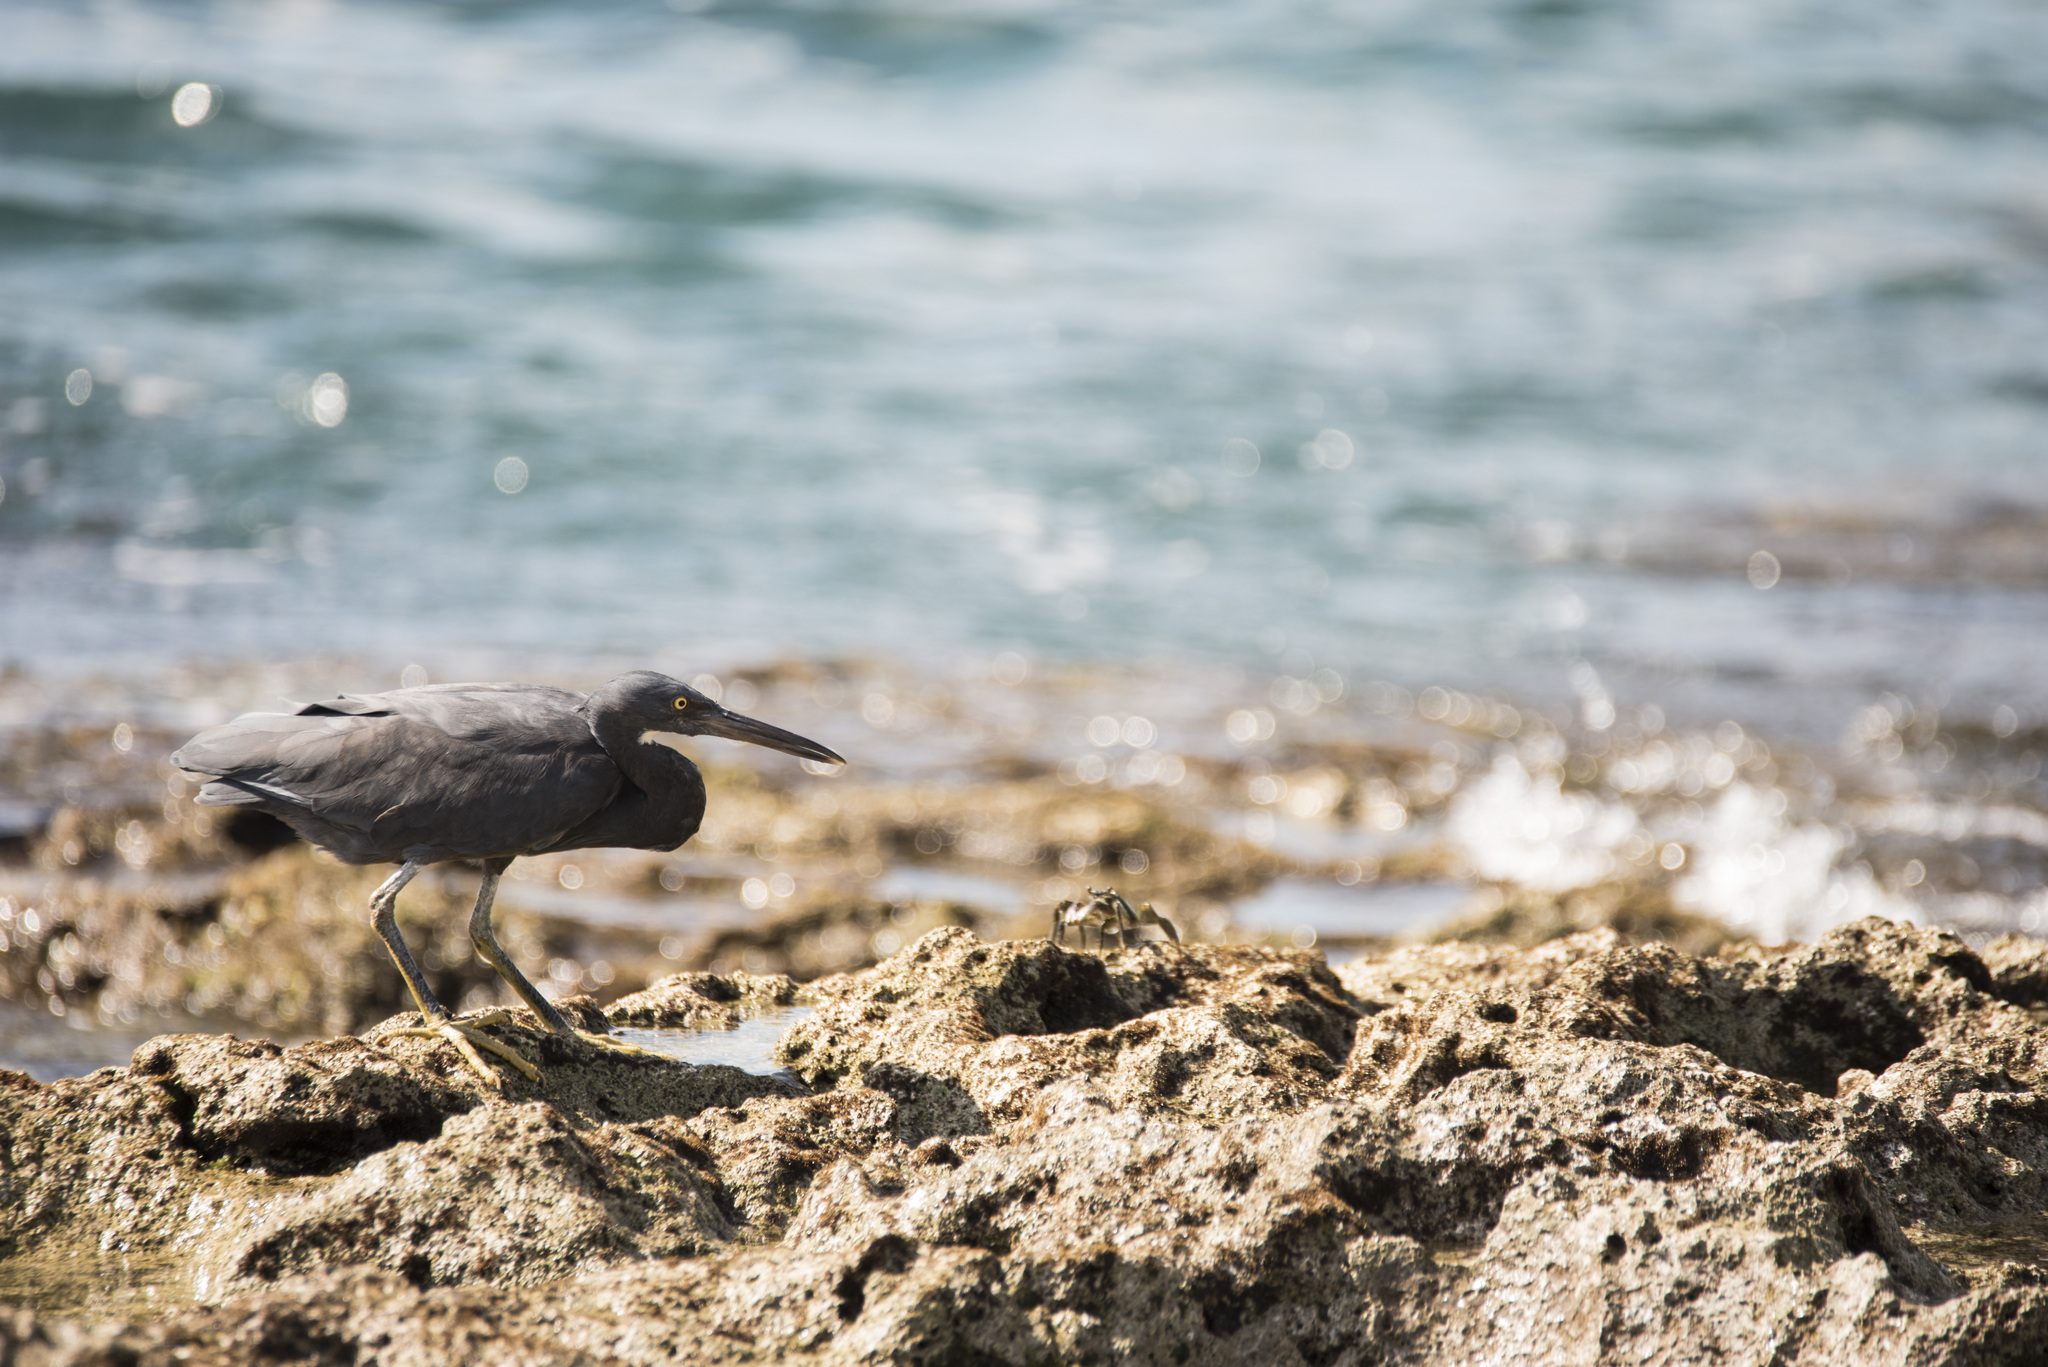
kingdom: Animalia
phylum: Chordata
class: Aves
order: Pelecaniformes
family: Ardeidae
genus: Egretta
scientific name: Egretta sacra
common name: Pacific reef heron
